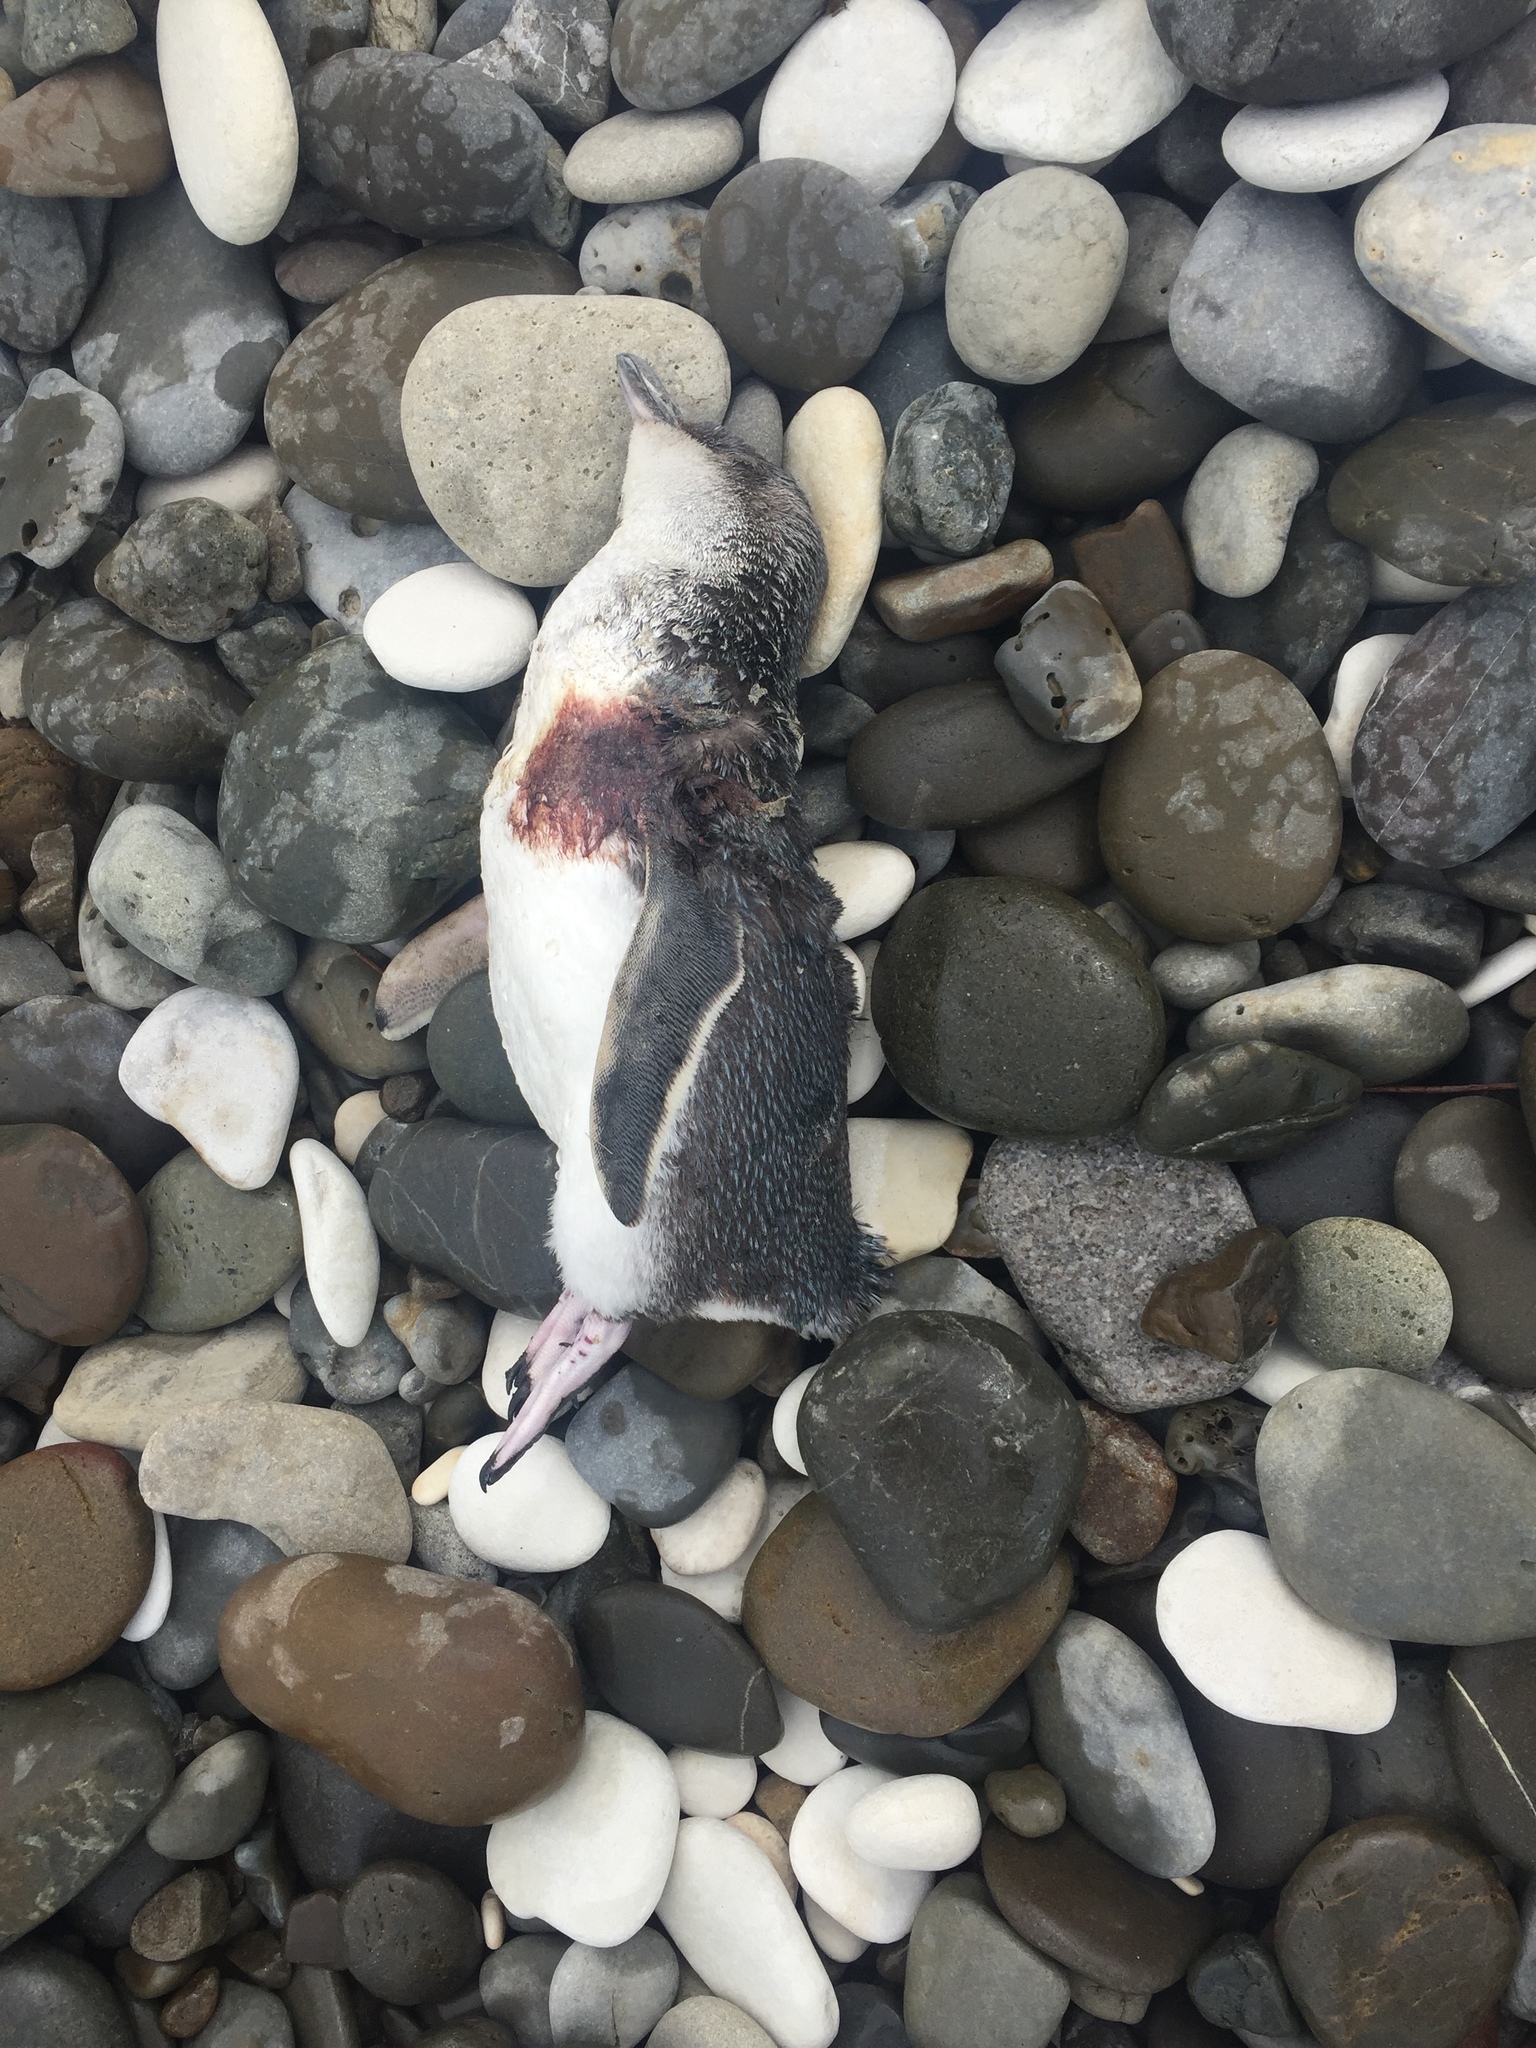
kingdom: Animalia
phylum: Chordata
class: Aves
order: Sphenisciformes
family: Spheniscidae
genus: Eudyptula
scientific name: Eudyptula minor
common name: Little penguin
